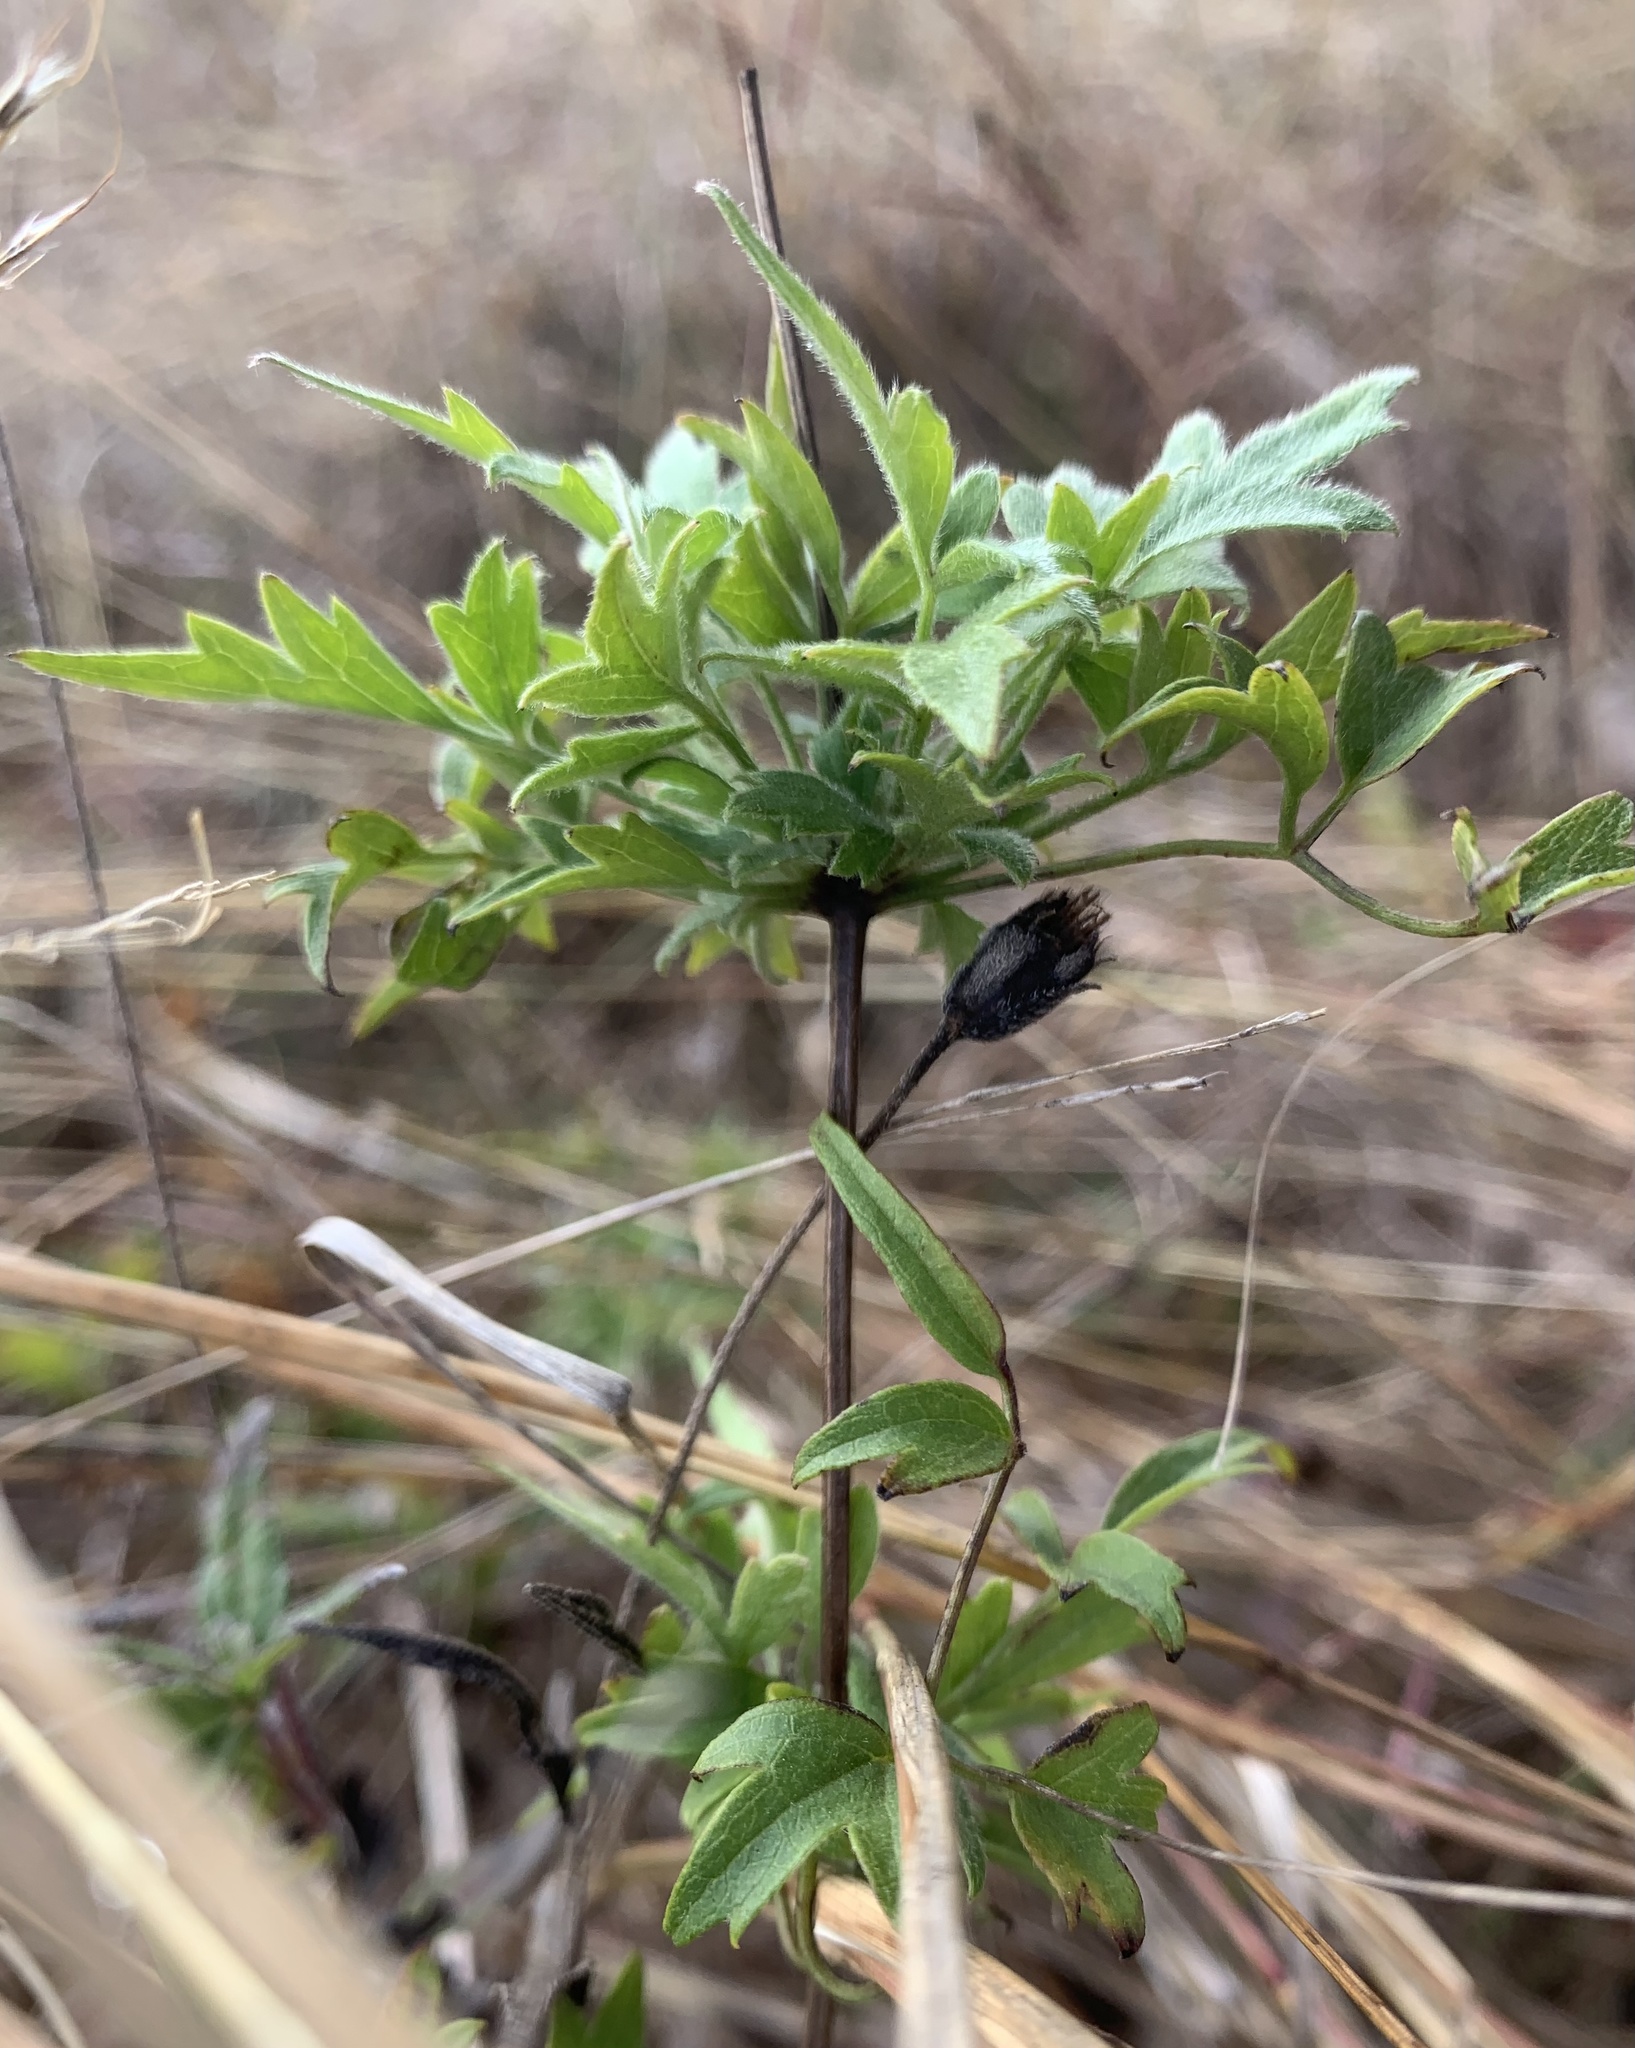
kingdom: Plantae
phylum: Tracheophyta
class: Magnoliopsida
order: Ranunculales
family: Ranunculaceae
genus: Clematis
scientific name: Clematis drummondii
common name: Texas virgin's bower
